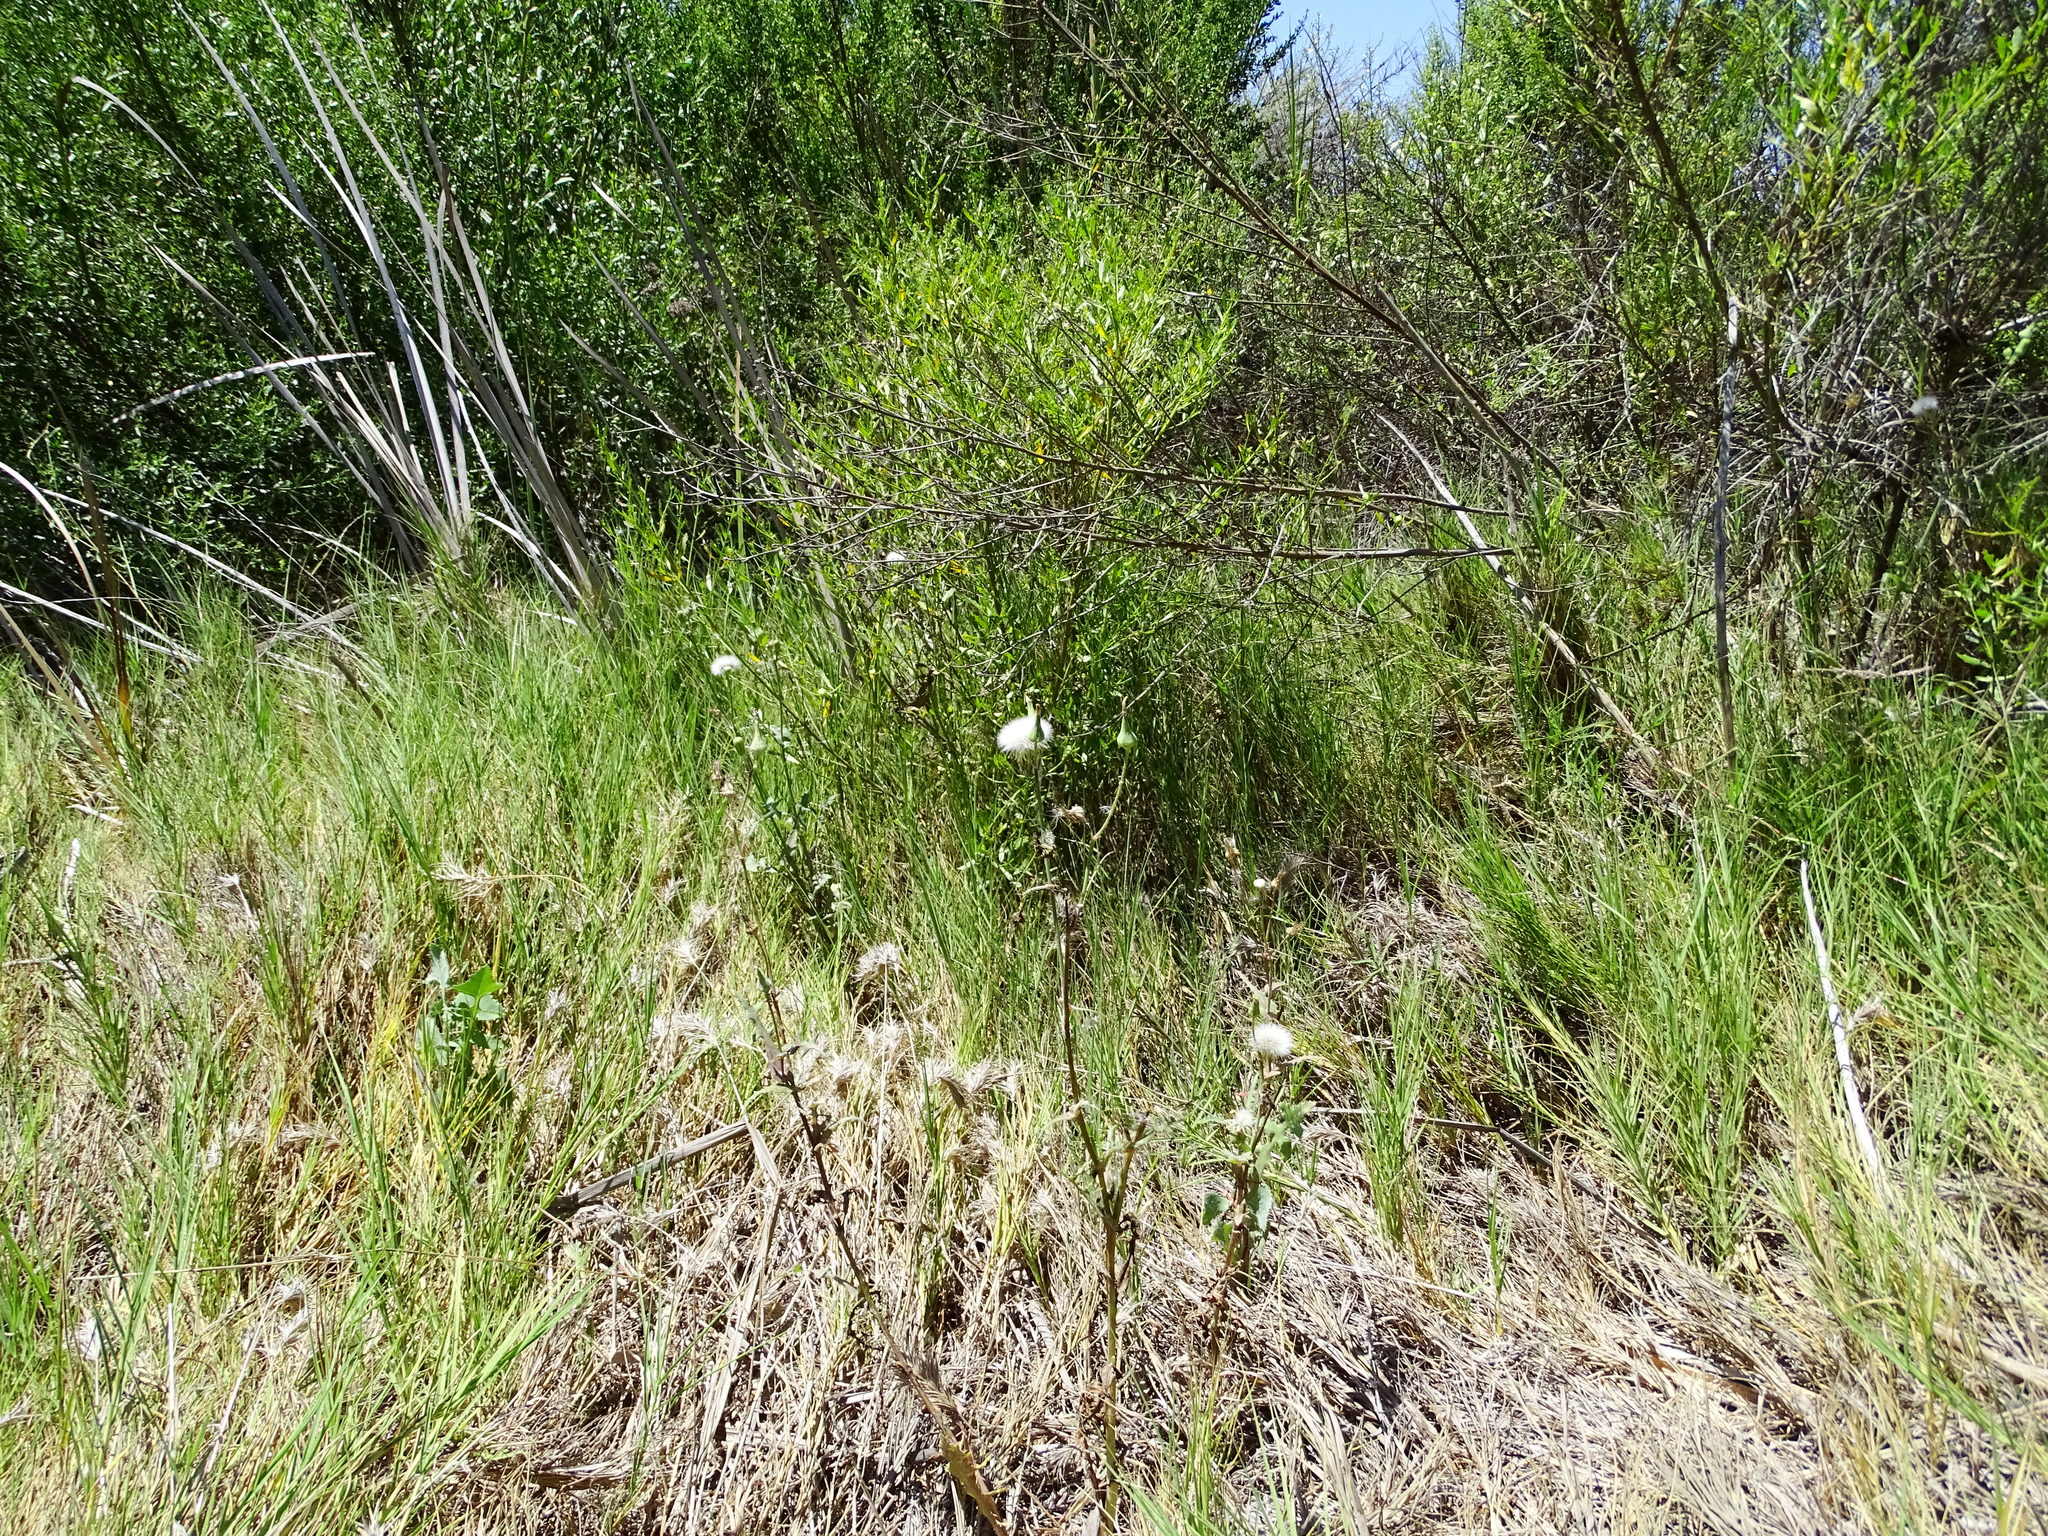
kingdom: Plantae
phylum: Tracheophyta
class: Magnoliopsida
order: Asterales
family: Asteraceae
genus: Sonchus
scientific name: Sonchus oleraceus
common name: Common sowthistle
